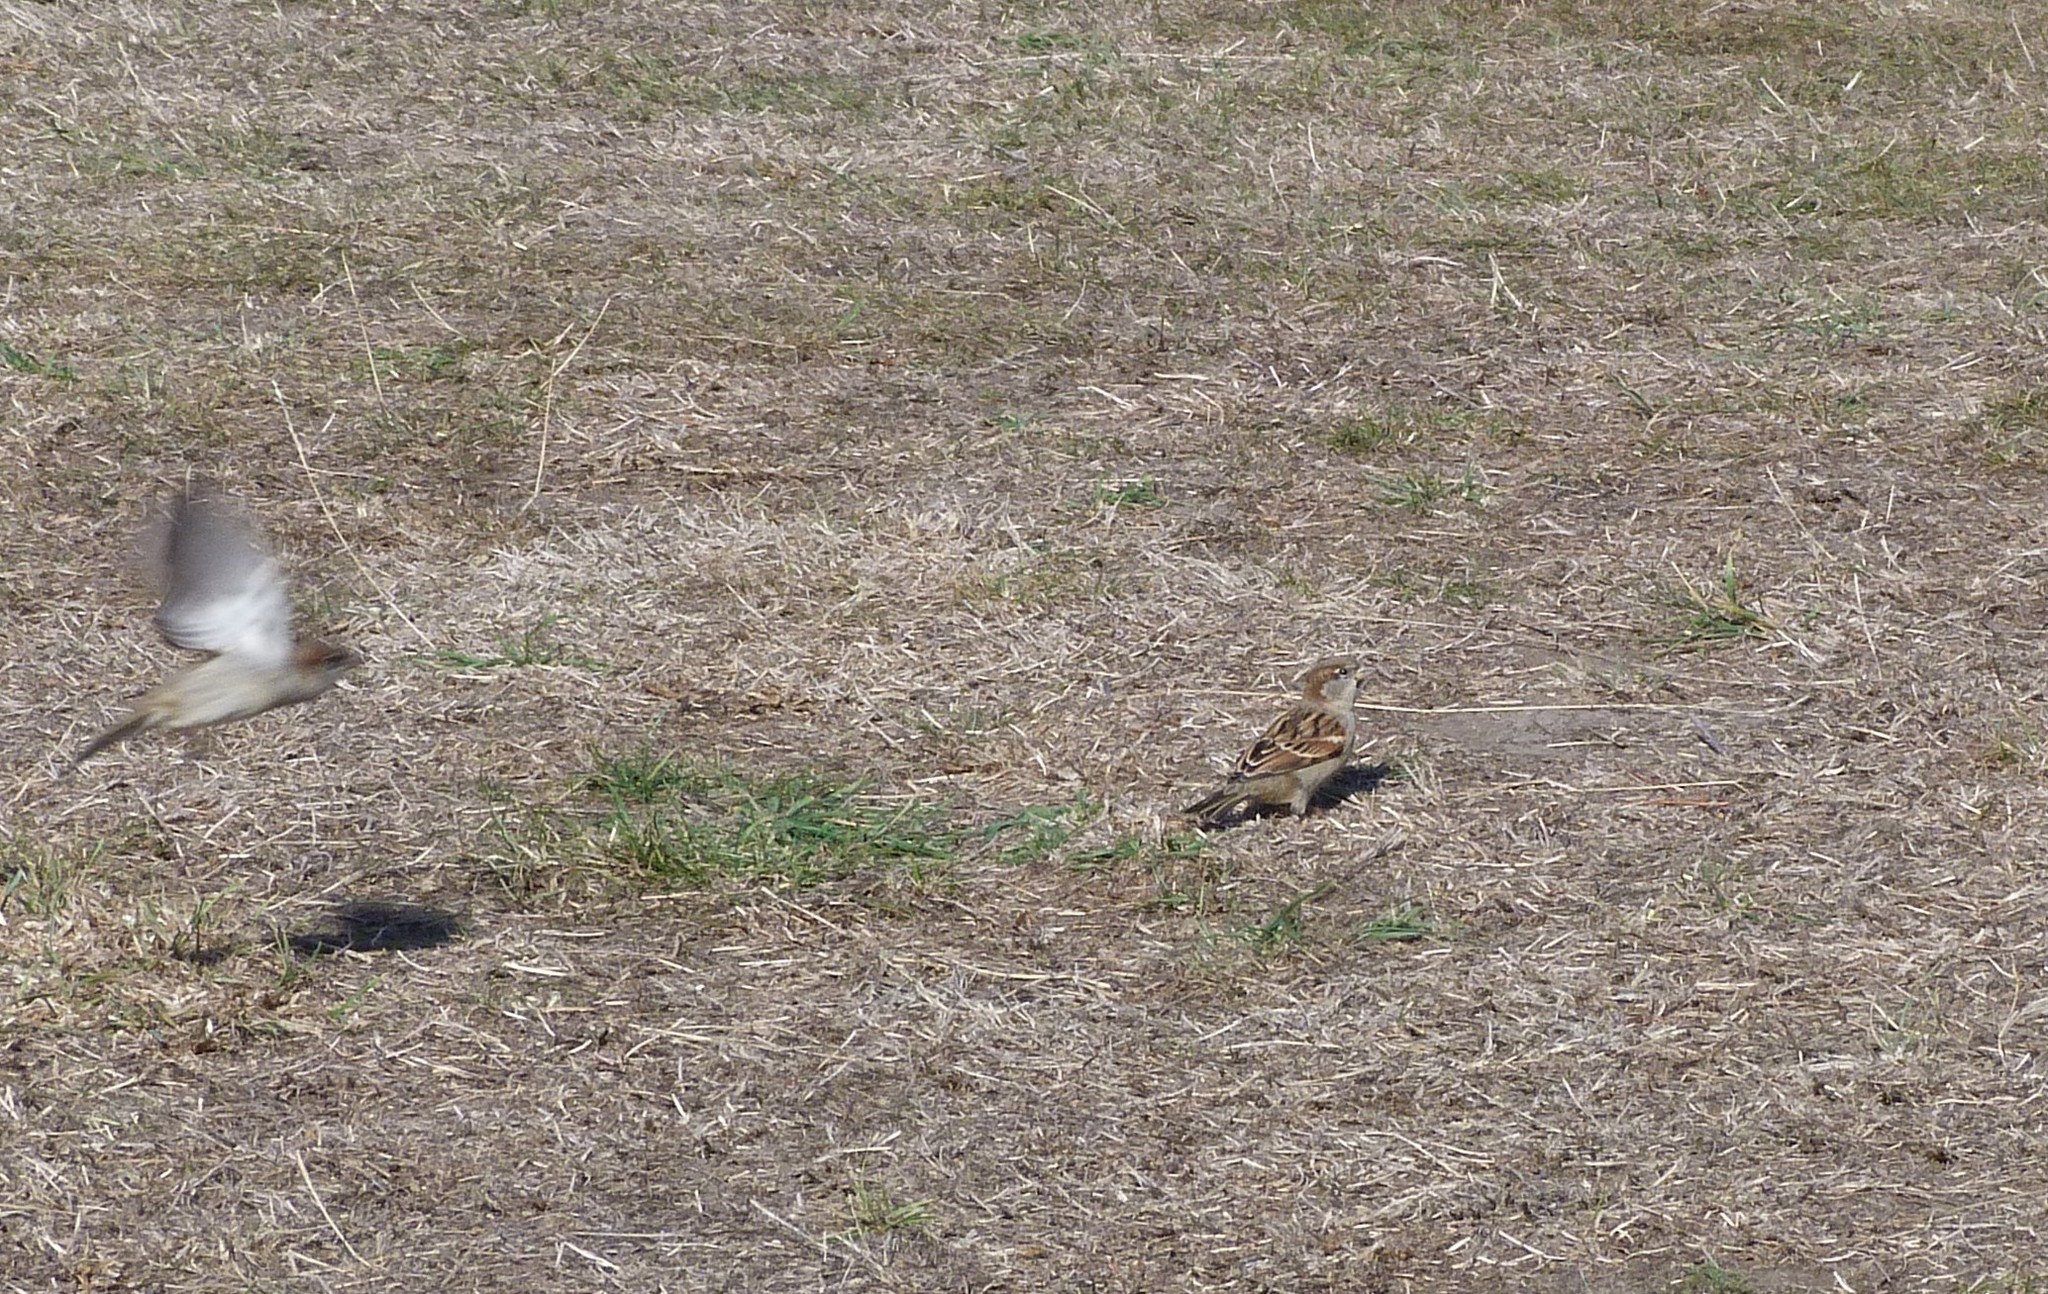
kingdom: Animalia
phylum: Chordata
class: Aves
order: Passeriformes
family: Passeridae
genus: Passer
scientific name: Passer domesticus
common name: House sparrow
